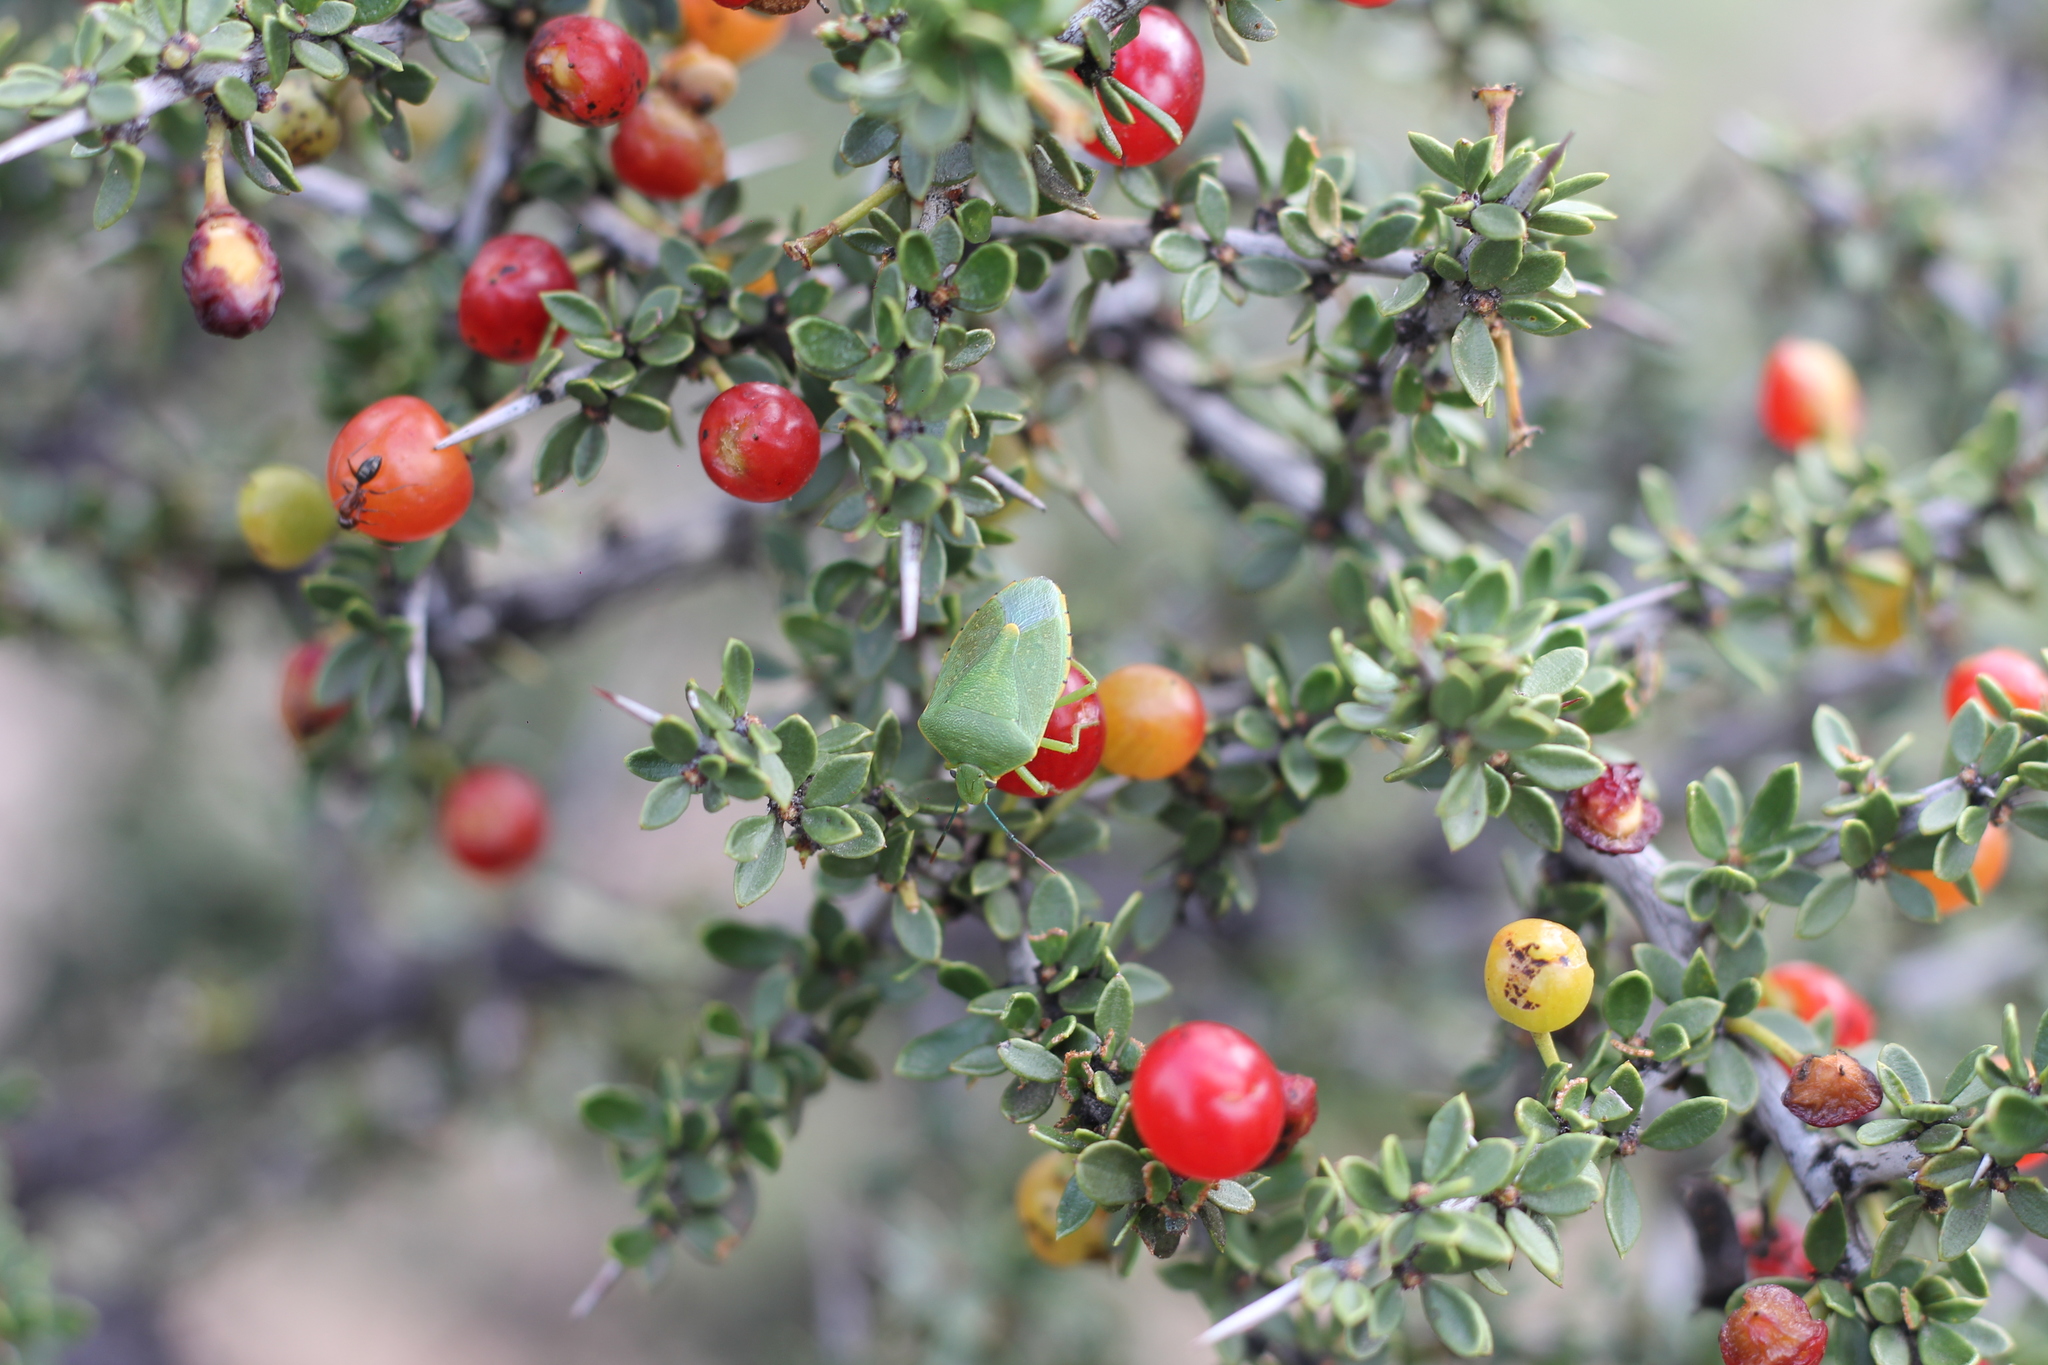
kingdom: Animalia
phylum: Arthropoda
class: Insecta
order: Hemiptera
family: Pentatomidae
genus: Chinavia
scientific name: Chinavia
